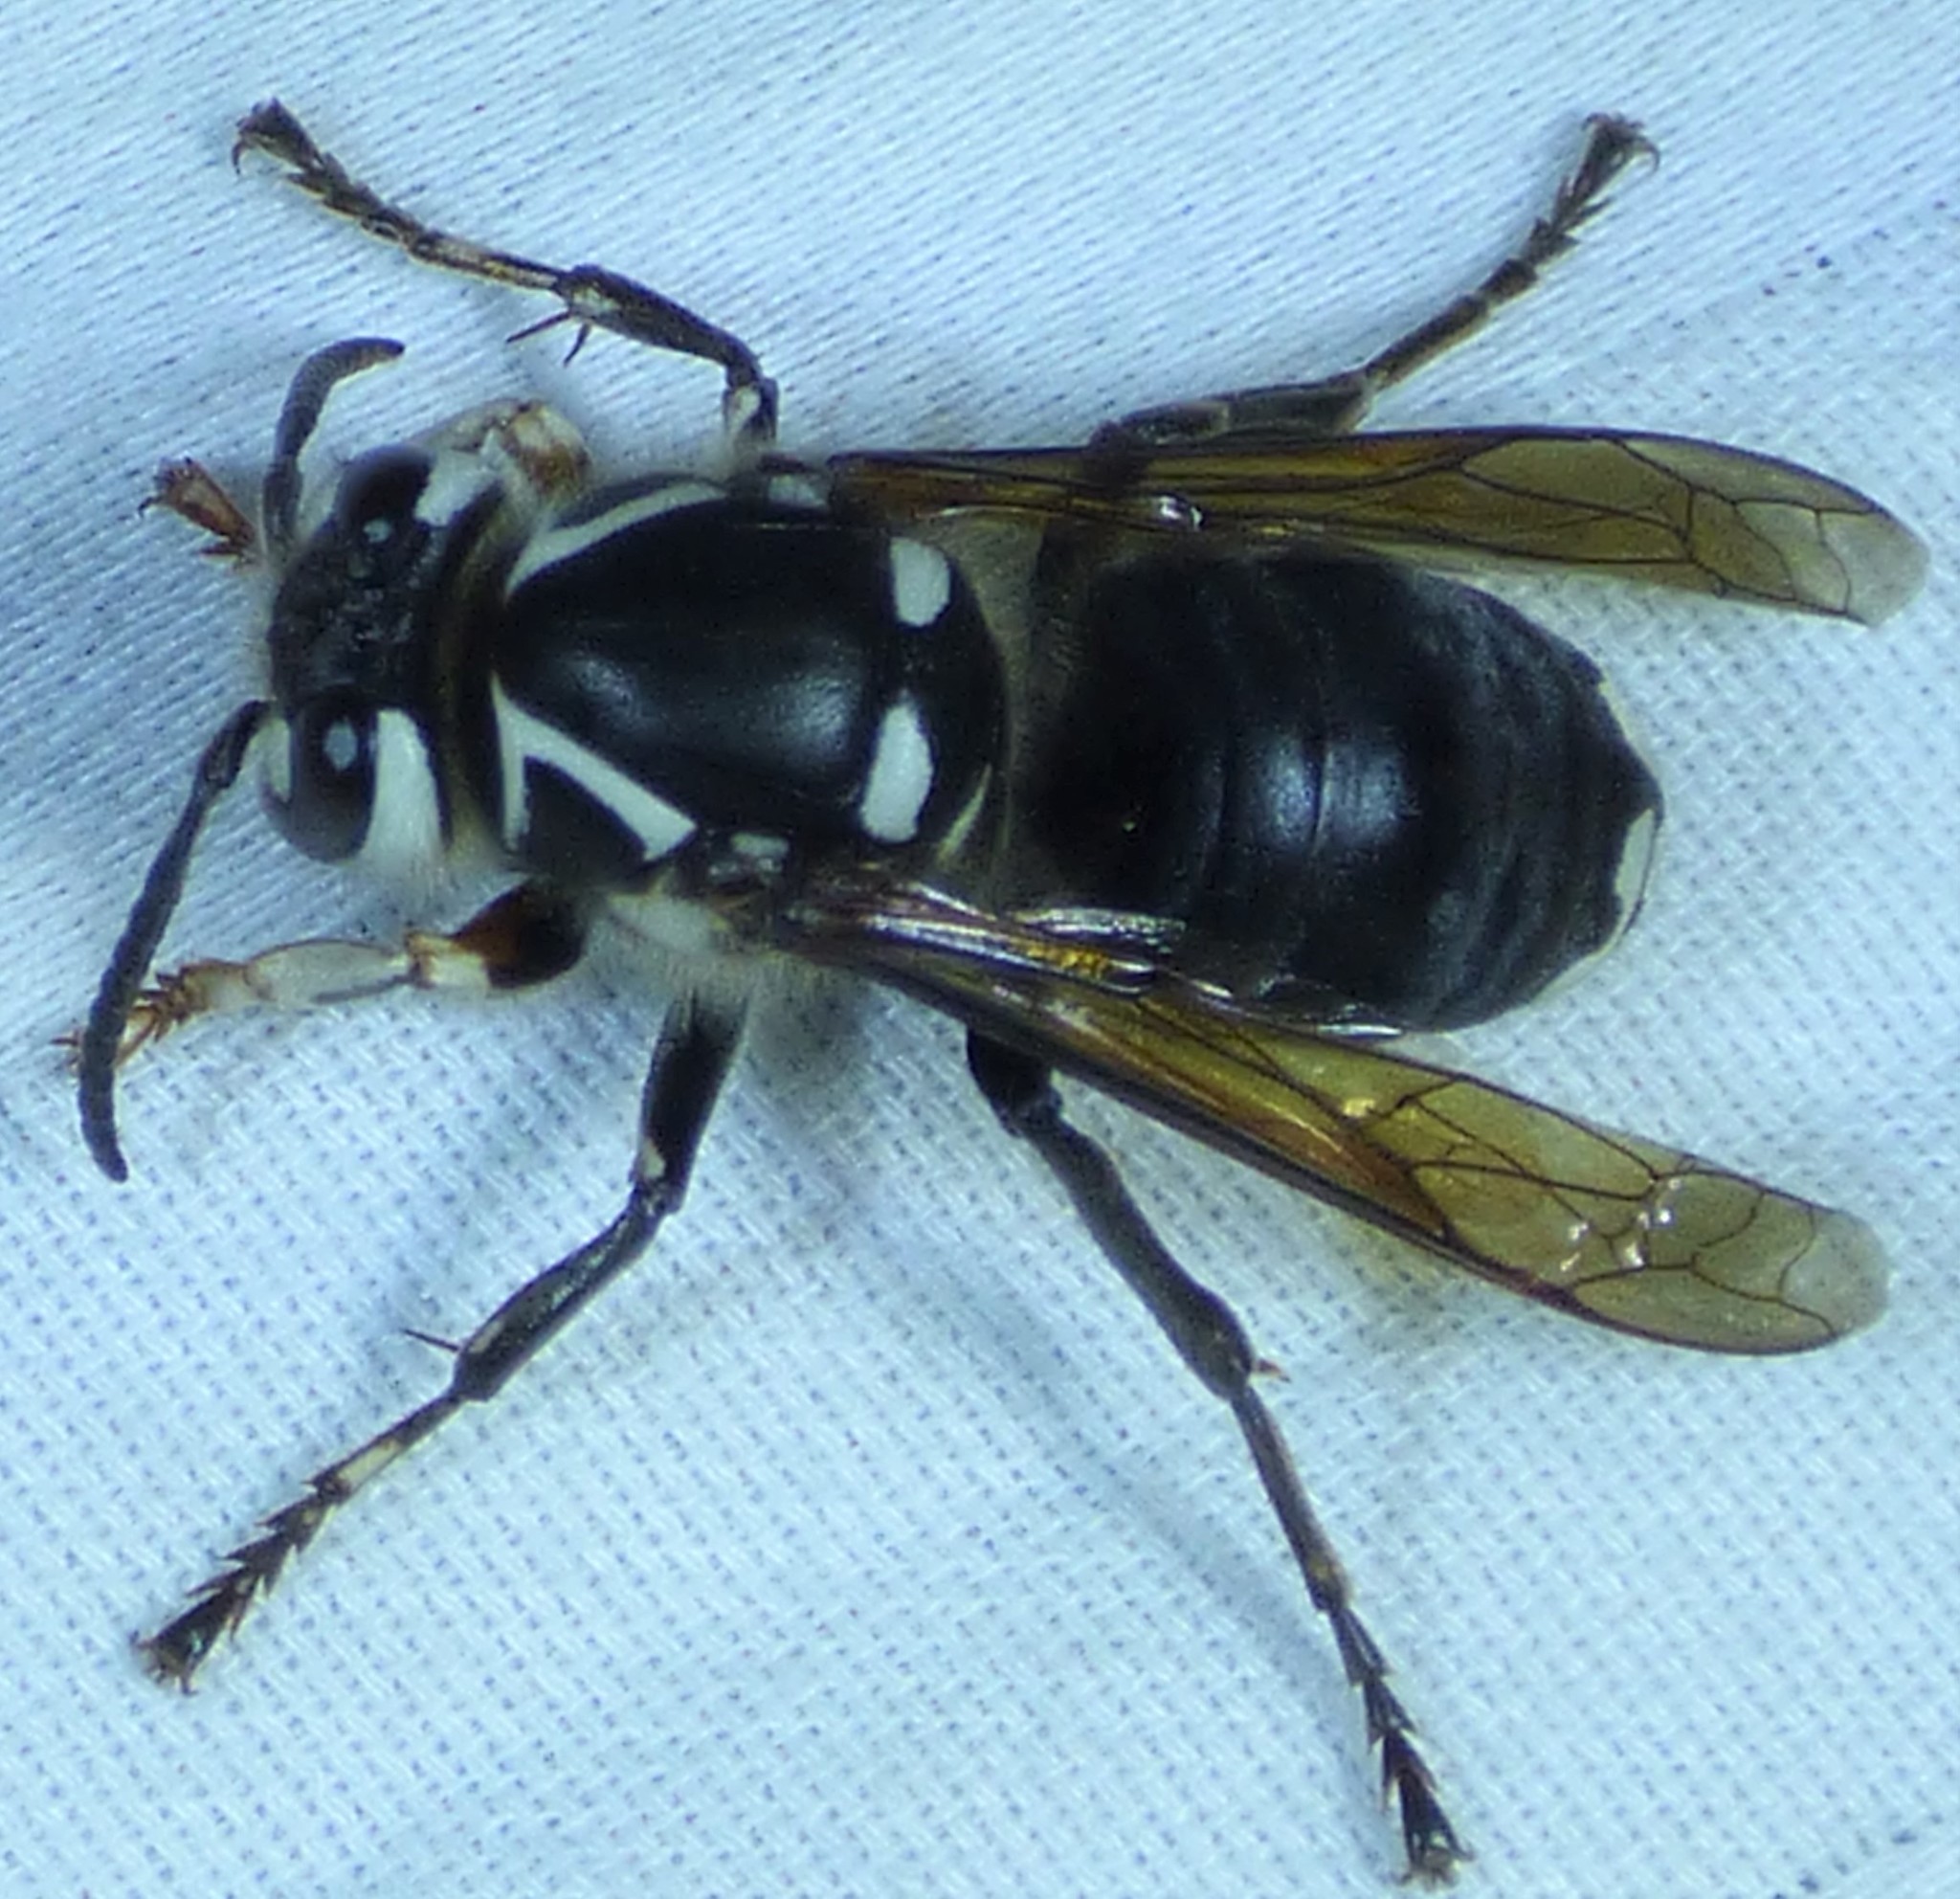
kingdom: Animalia
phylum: Arthropoda
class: Insecta
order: Hymenoptera
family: Vespidae
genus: Dolichovespula
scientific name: Dolichovespula maculata
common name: Bald-faced hornet
